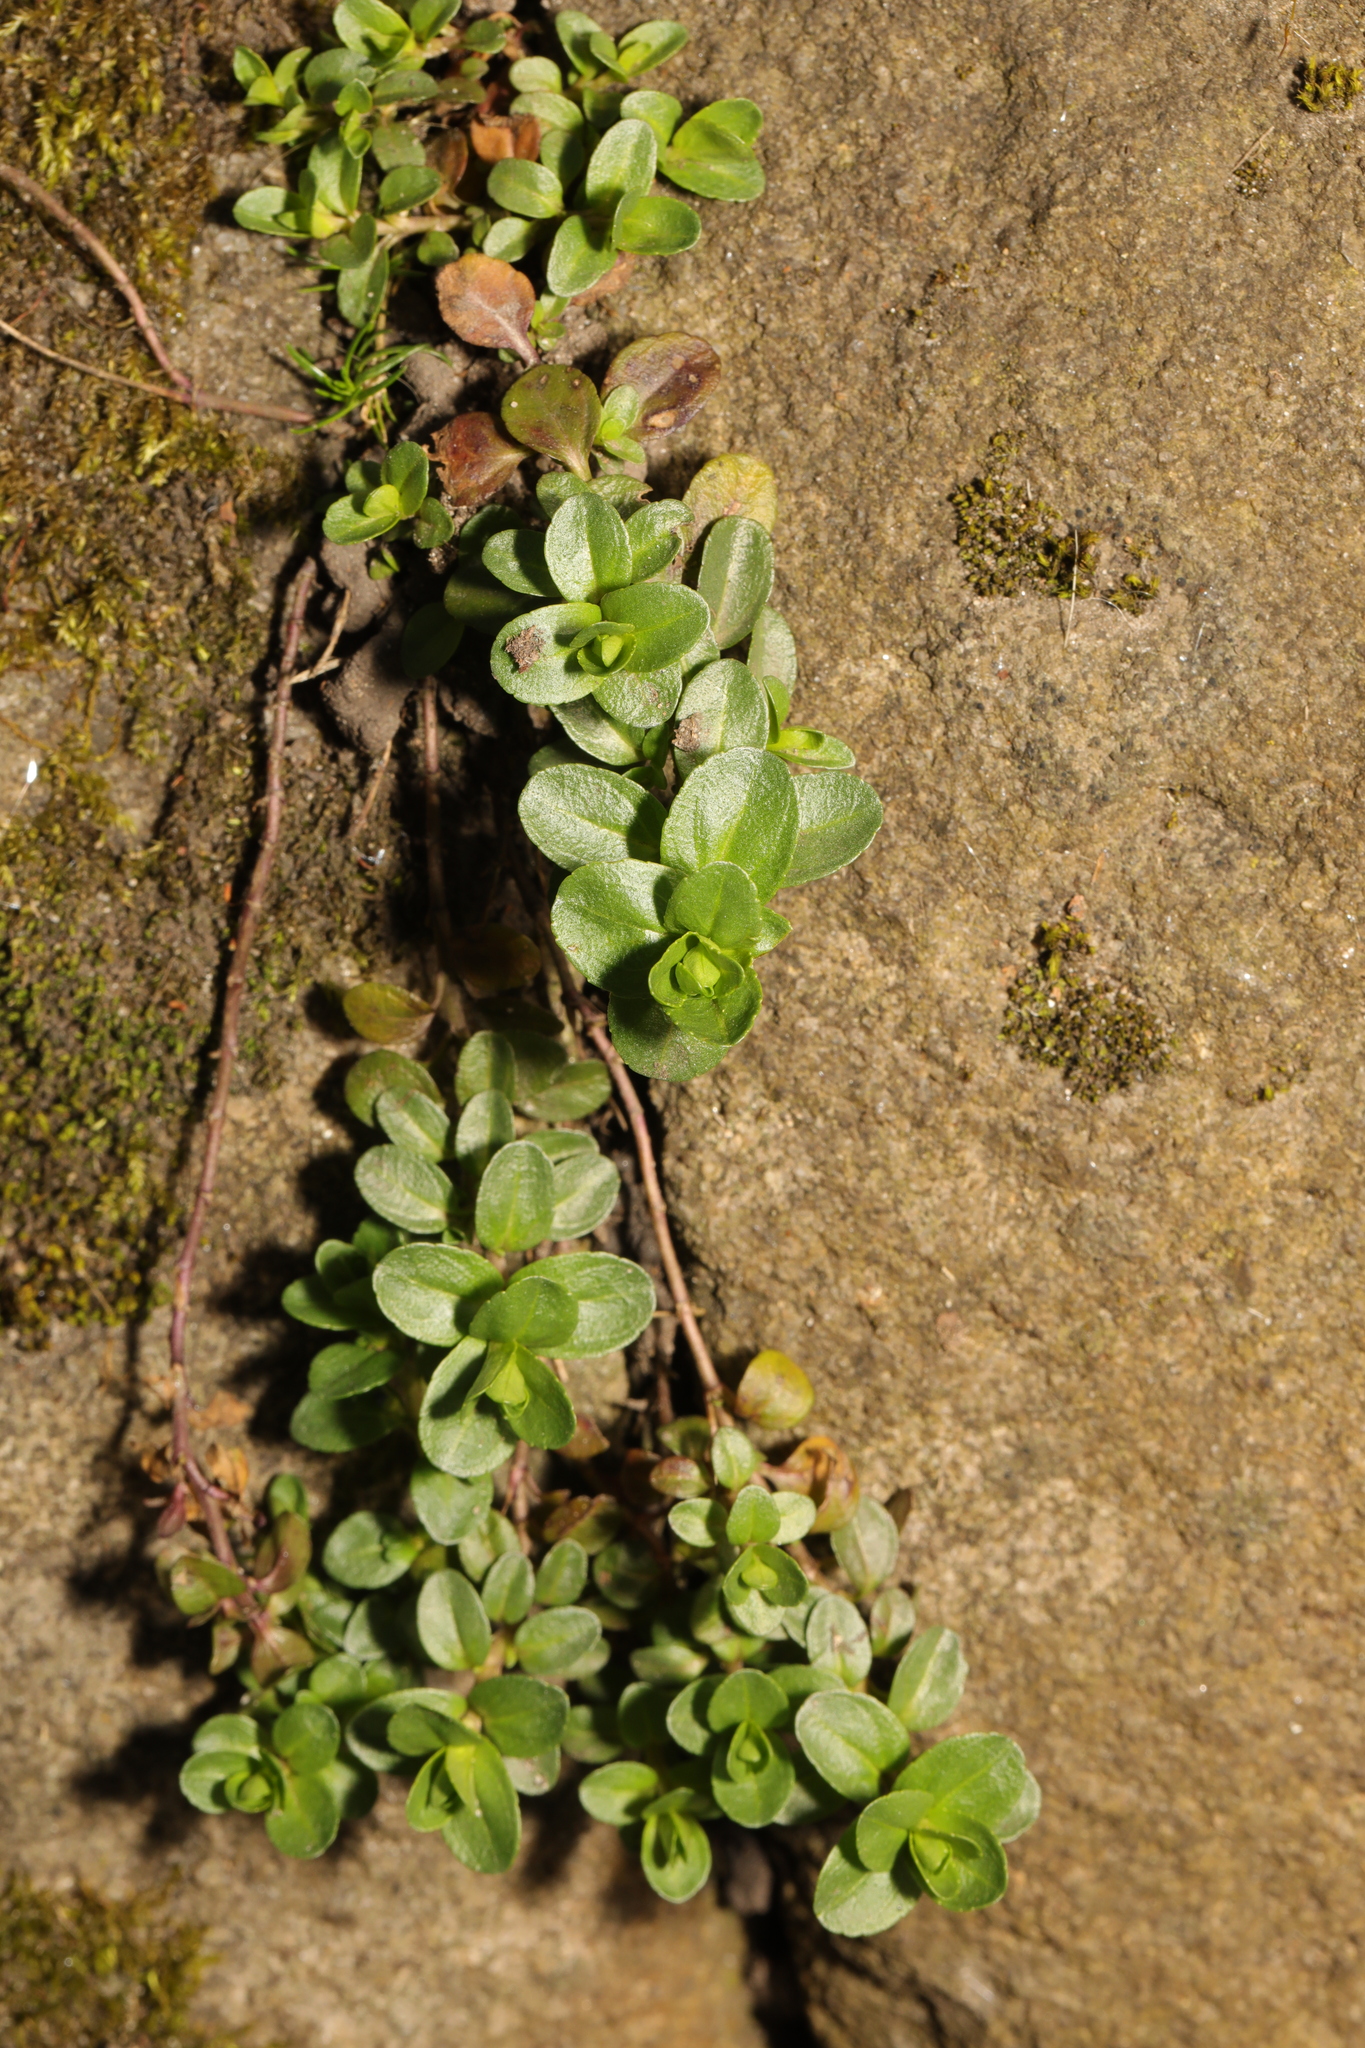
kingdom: Plantae
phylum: Tracheophyta
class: Magnoliopsida
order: Lamiales
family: Plantaginaceae
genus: Veronica
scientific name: Veronica serpyllifolia
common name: Thyme-leaved speedwell
